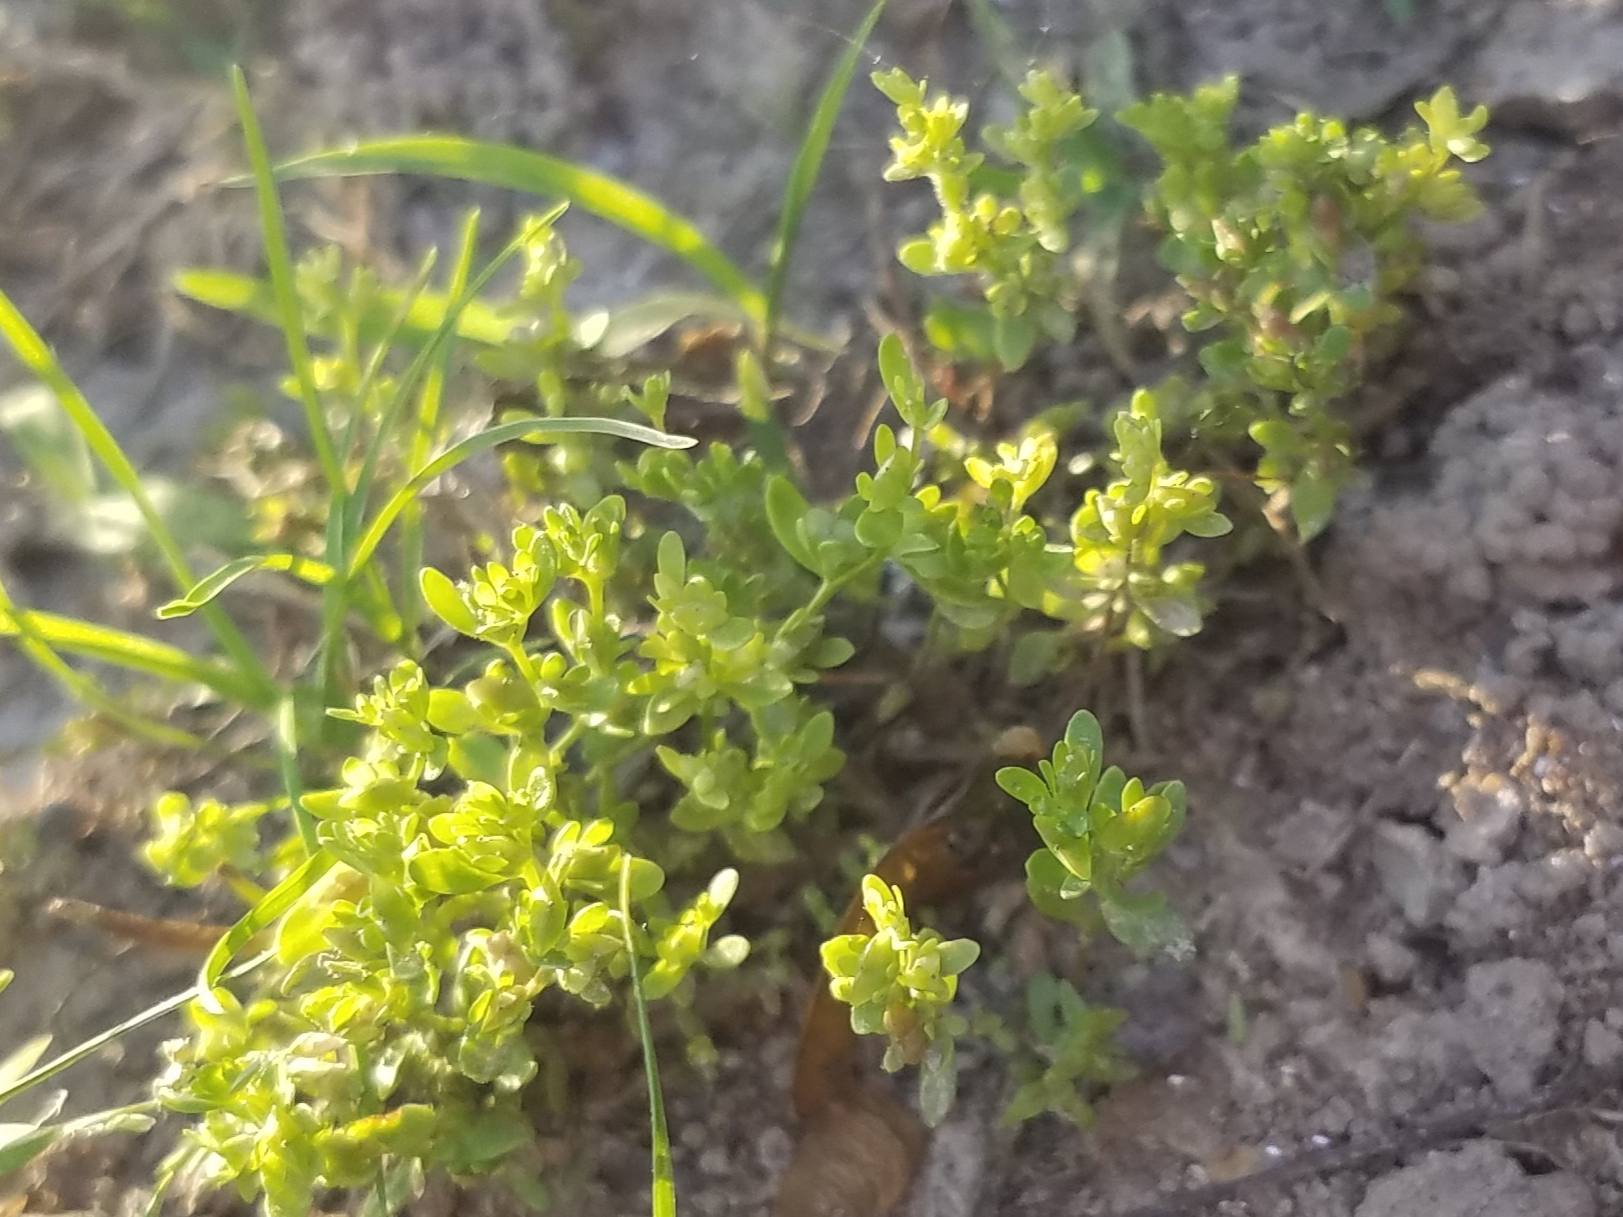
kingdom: Plantae
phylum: Tracheophyta
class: Magnoliopsida
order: Lamiales
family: Plantaginaceae
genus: Veronica
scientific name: Veronica peregrina
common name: Neckweed
